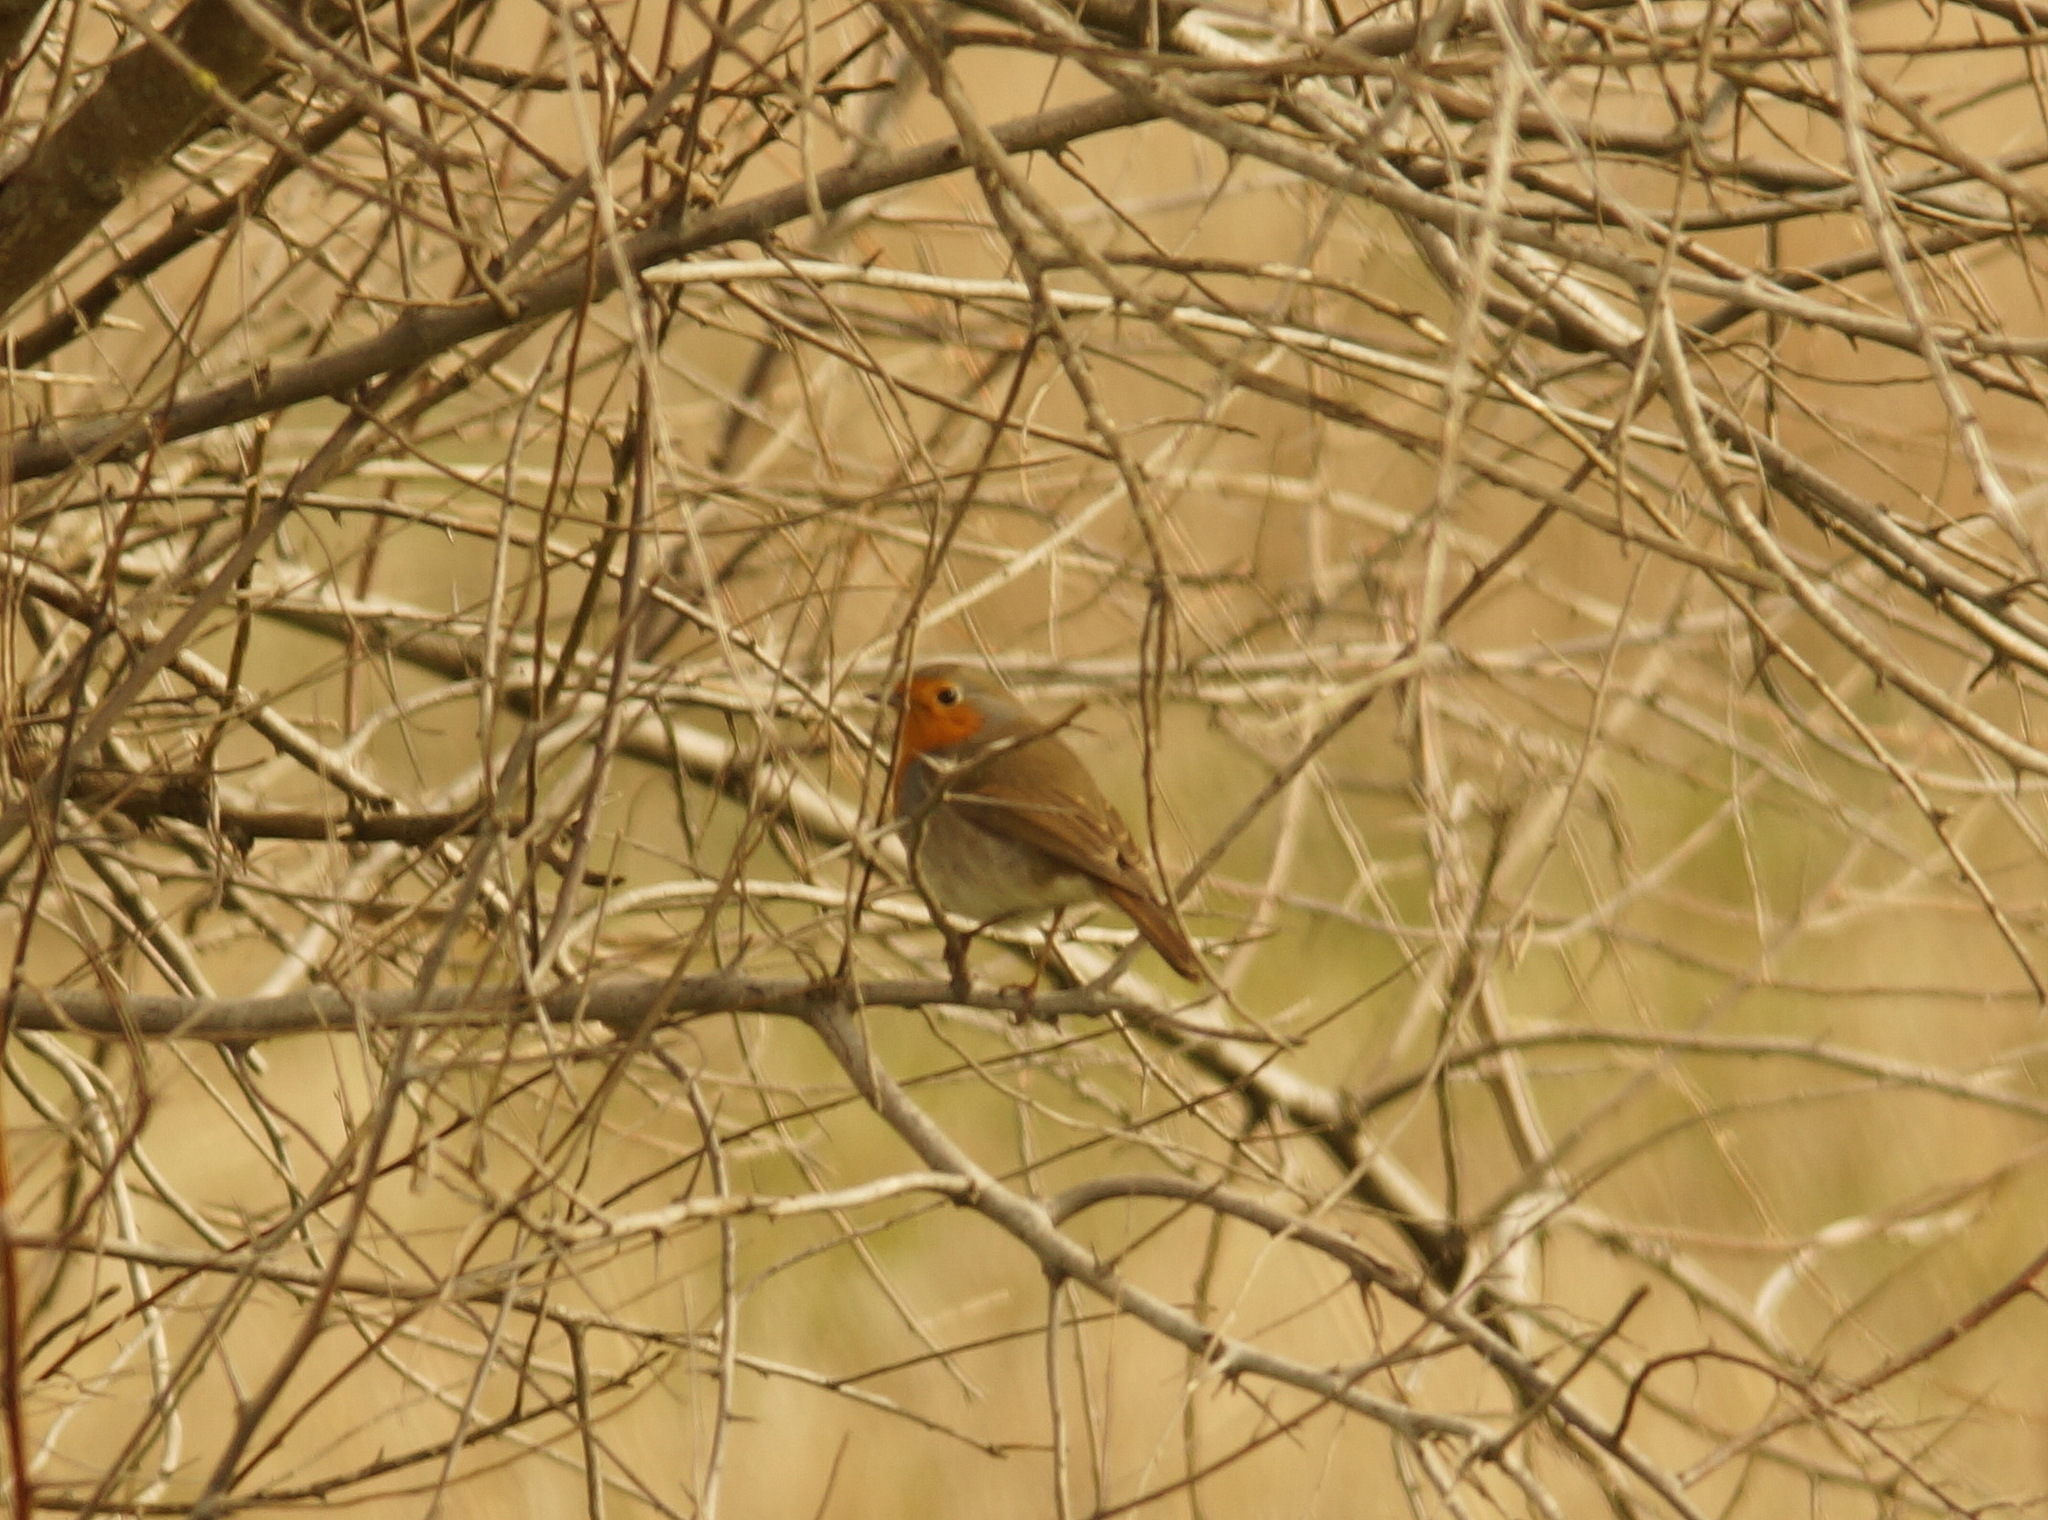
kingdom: Animalia
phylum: Chordata
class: Aves
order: Passeriformes
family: Muscicapidae
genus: Erithacus
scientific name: Erithacus rubecula
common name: European robin
